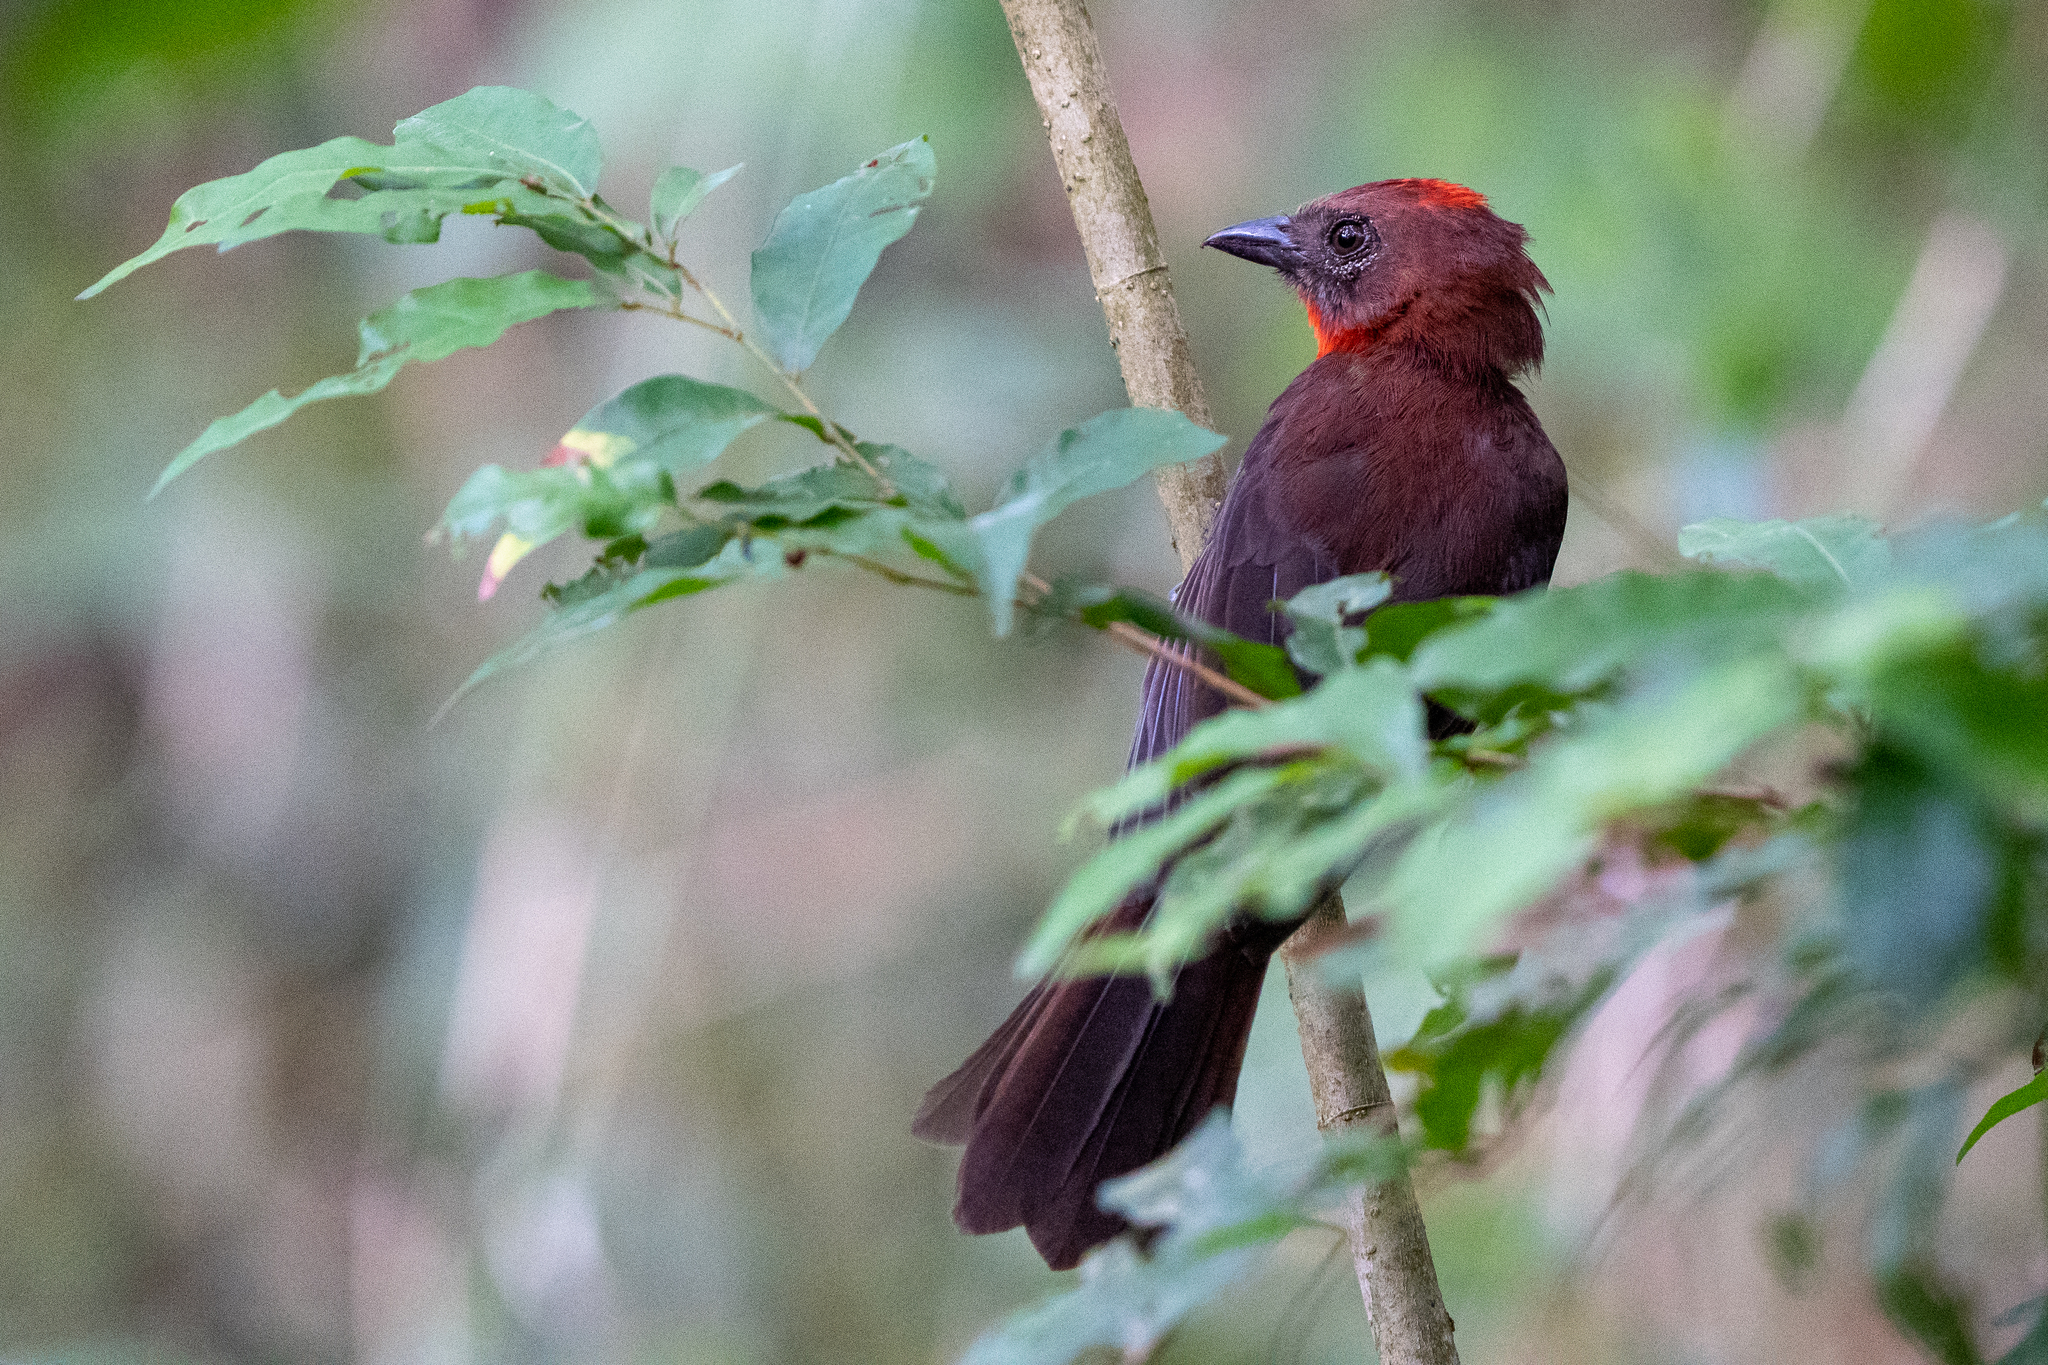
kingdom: Animalia
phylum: Chordata
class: Aves
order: Passeriformes
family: Cardinalidae
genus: Habia
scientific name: Habia fuscicauda
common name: Red-throated ant-tanager
